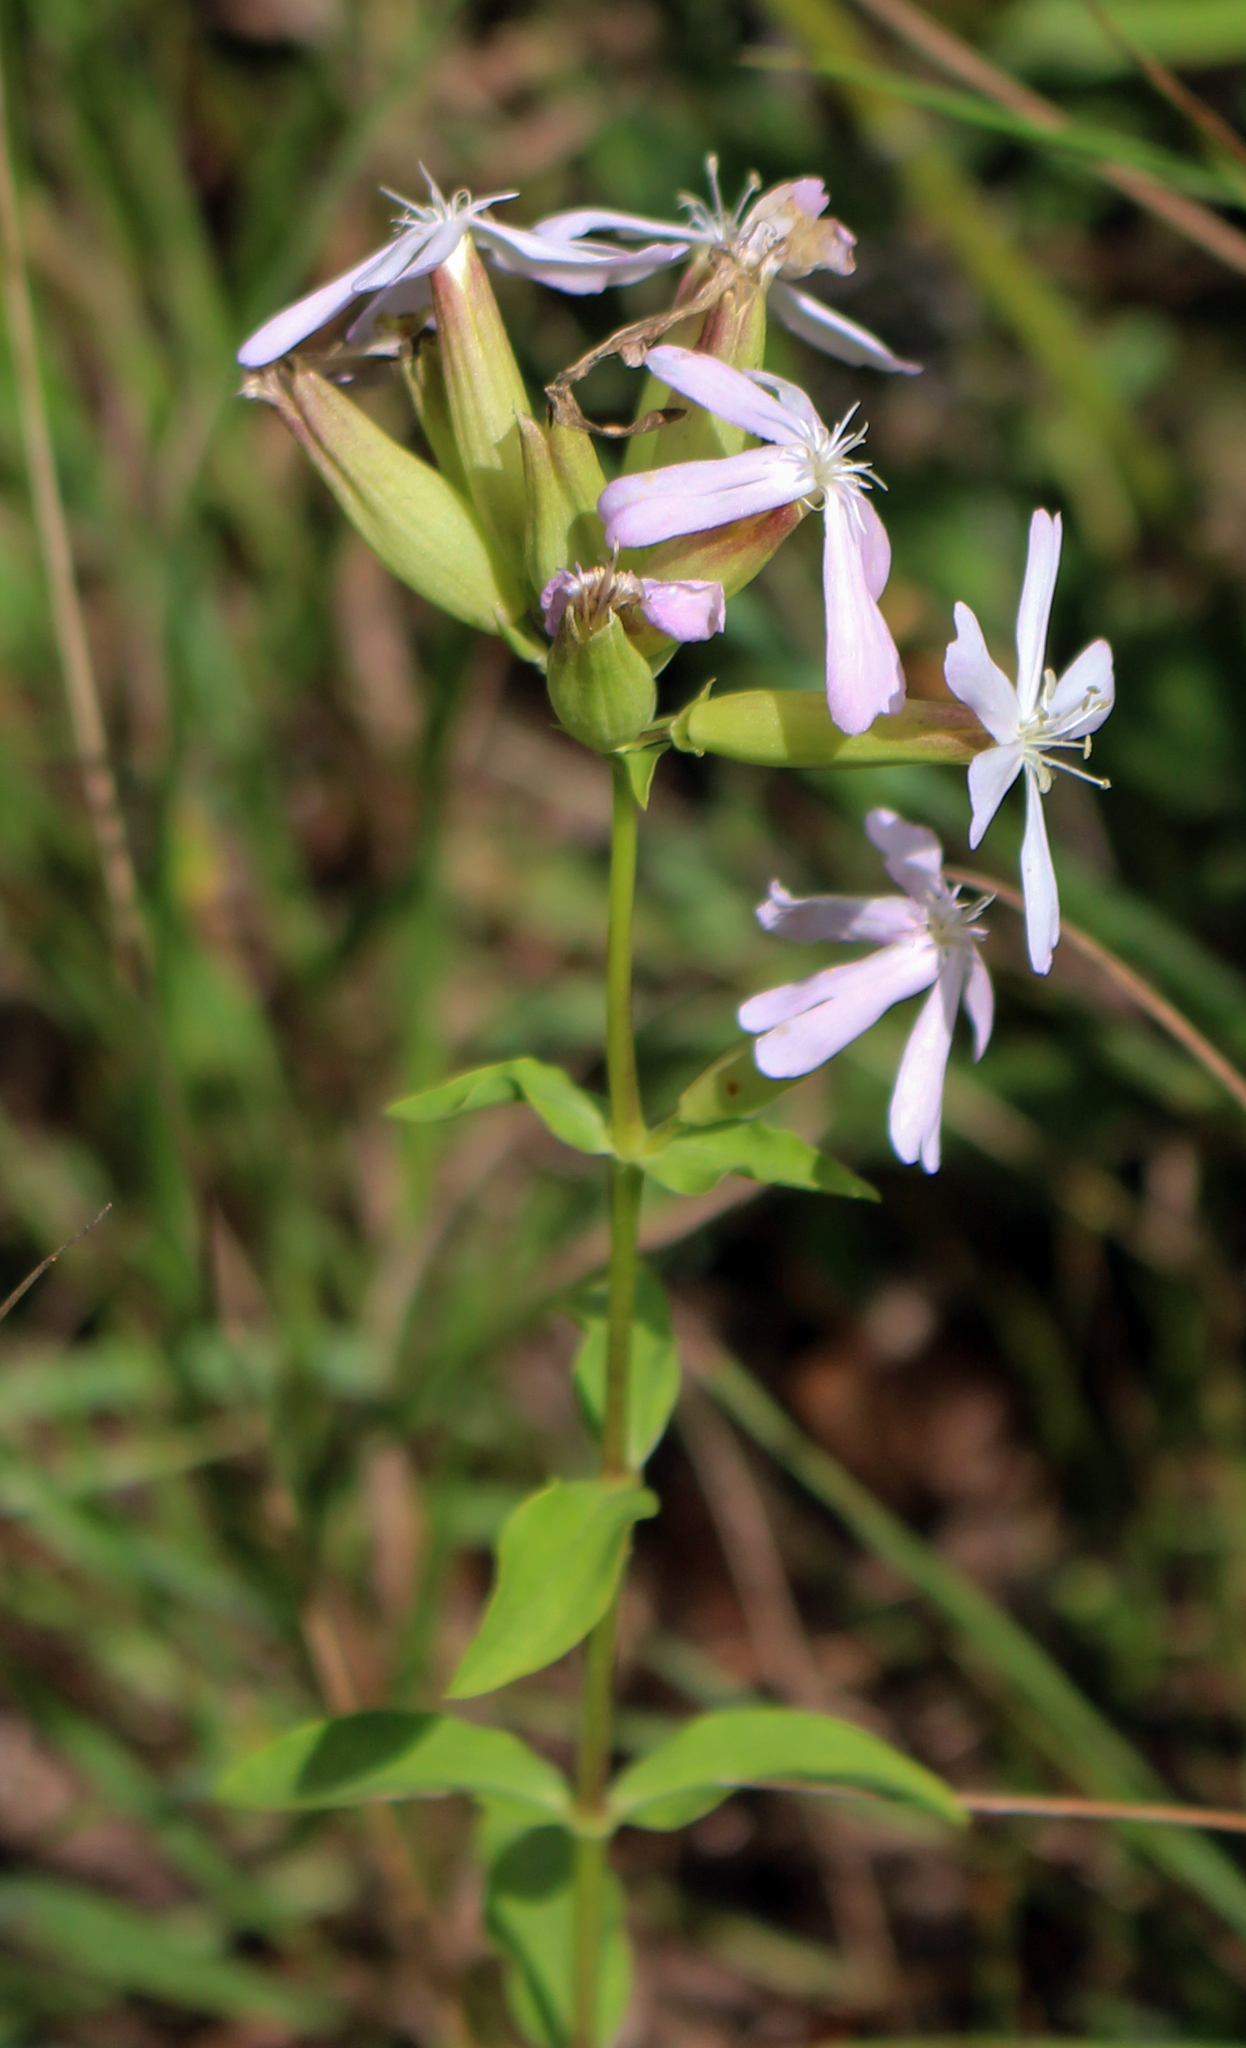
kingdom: Plantae
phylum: Tracheophyta
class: Magnoliopsida
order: Caryophyllales
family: Caryophyllaceae
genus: Saponaria
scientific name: Saponaria officinalis
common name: Soapwort
